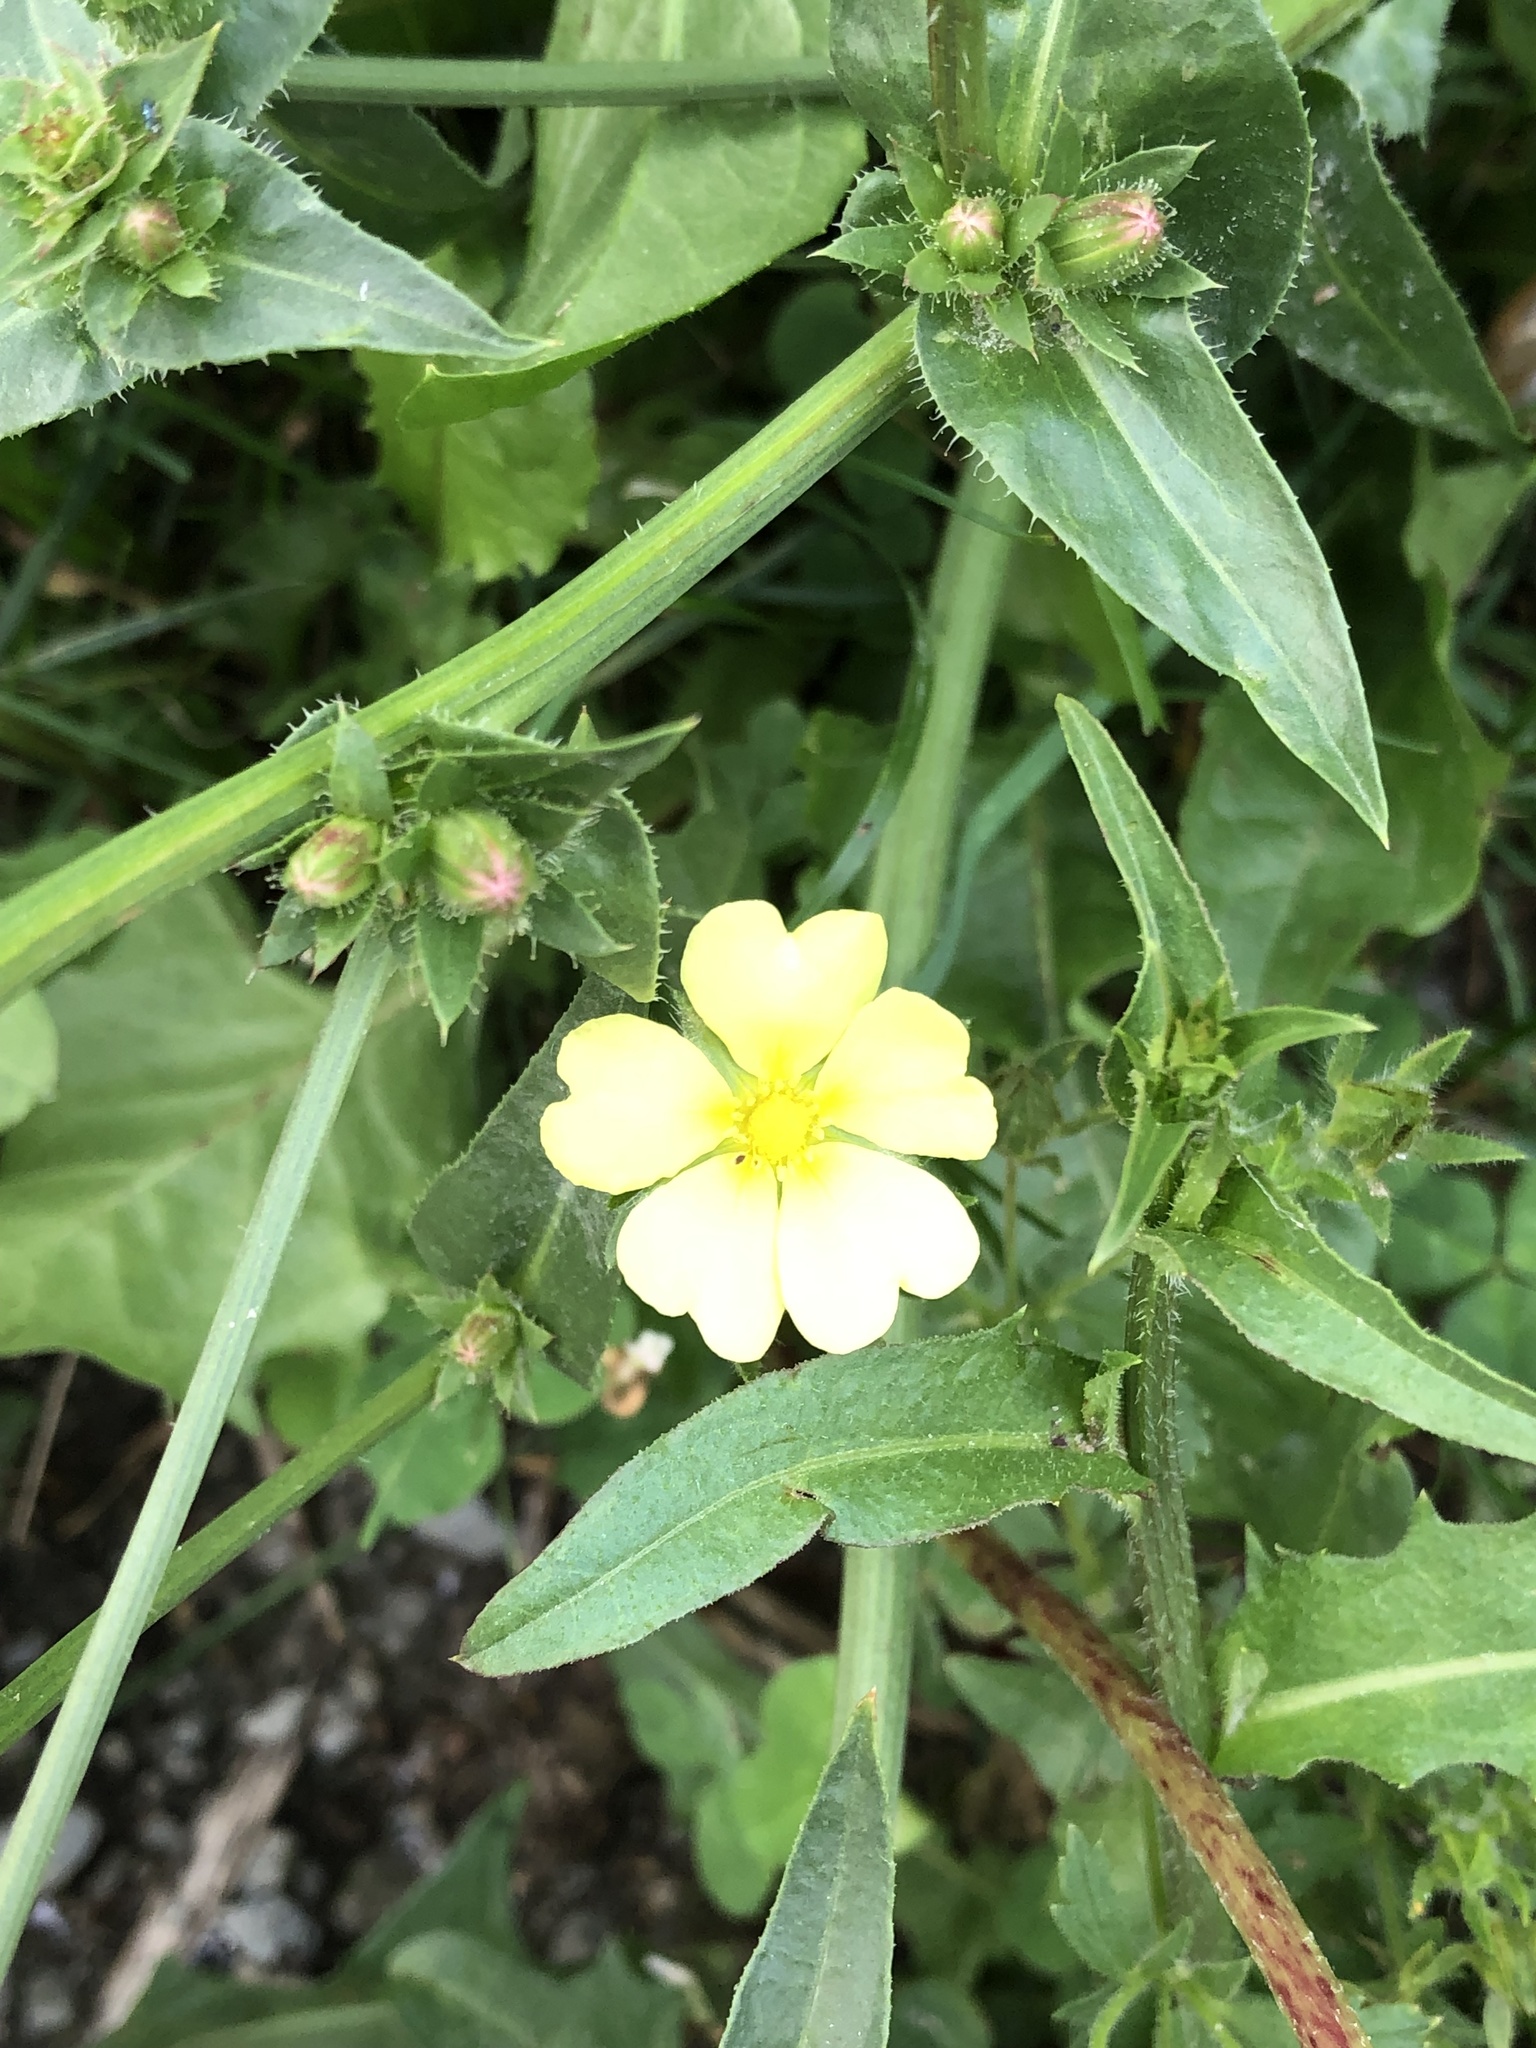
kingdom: Plantae
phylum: Tracheophyta
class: Magnoliopsida
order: Rosales
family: Rosaceae
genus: Potentilla
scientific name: Potentilla recta
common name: Sulphur cinquefoil
